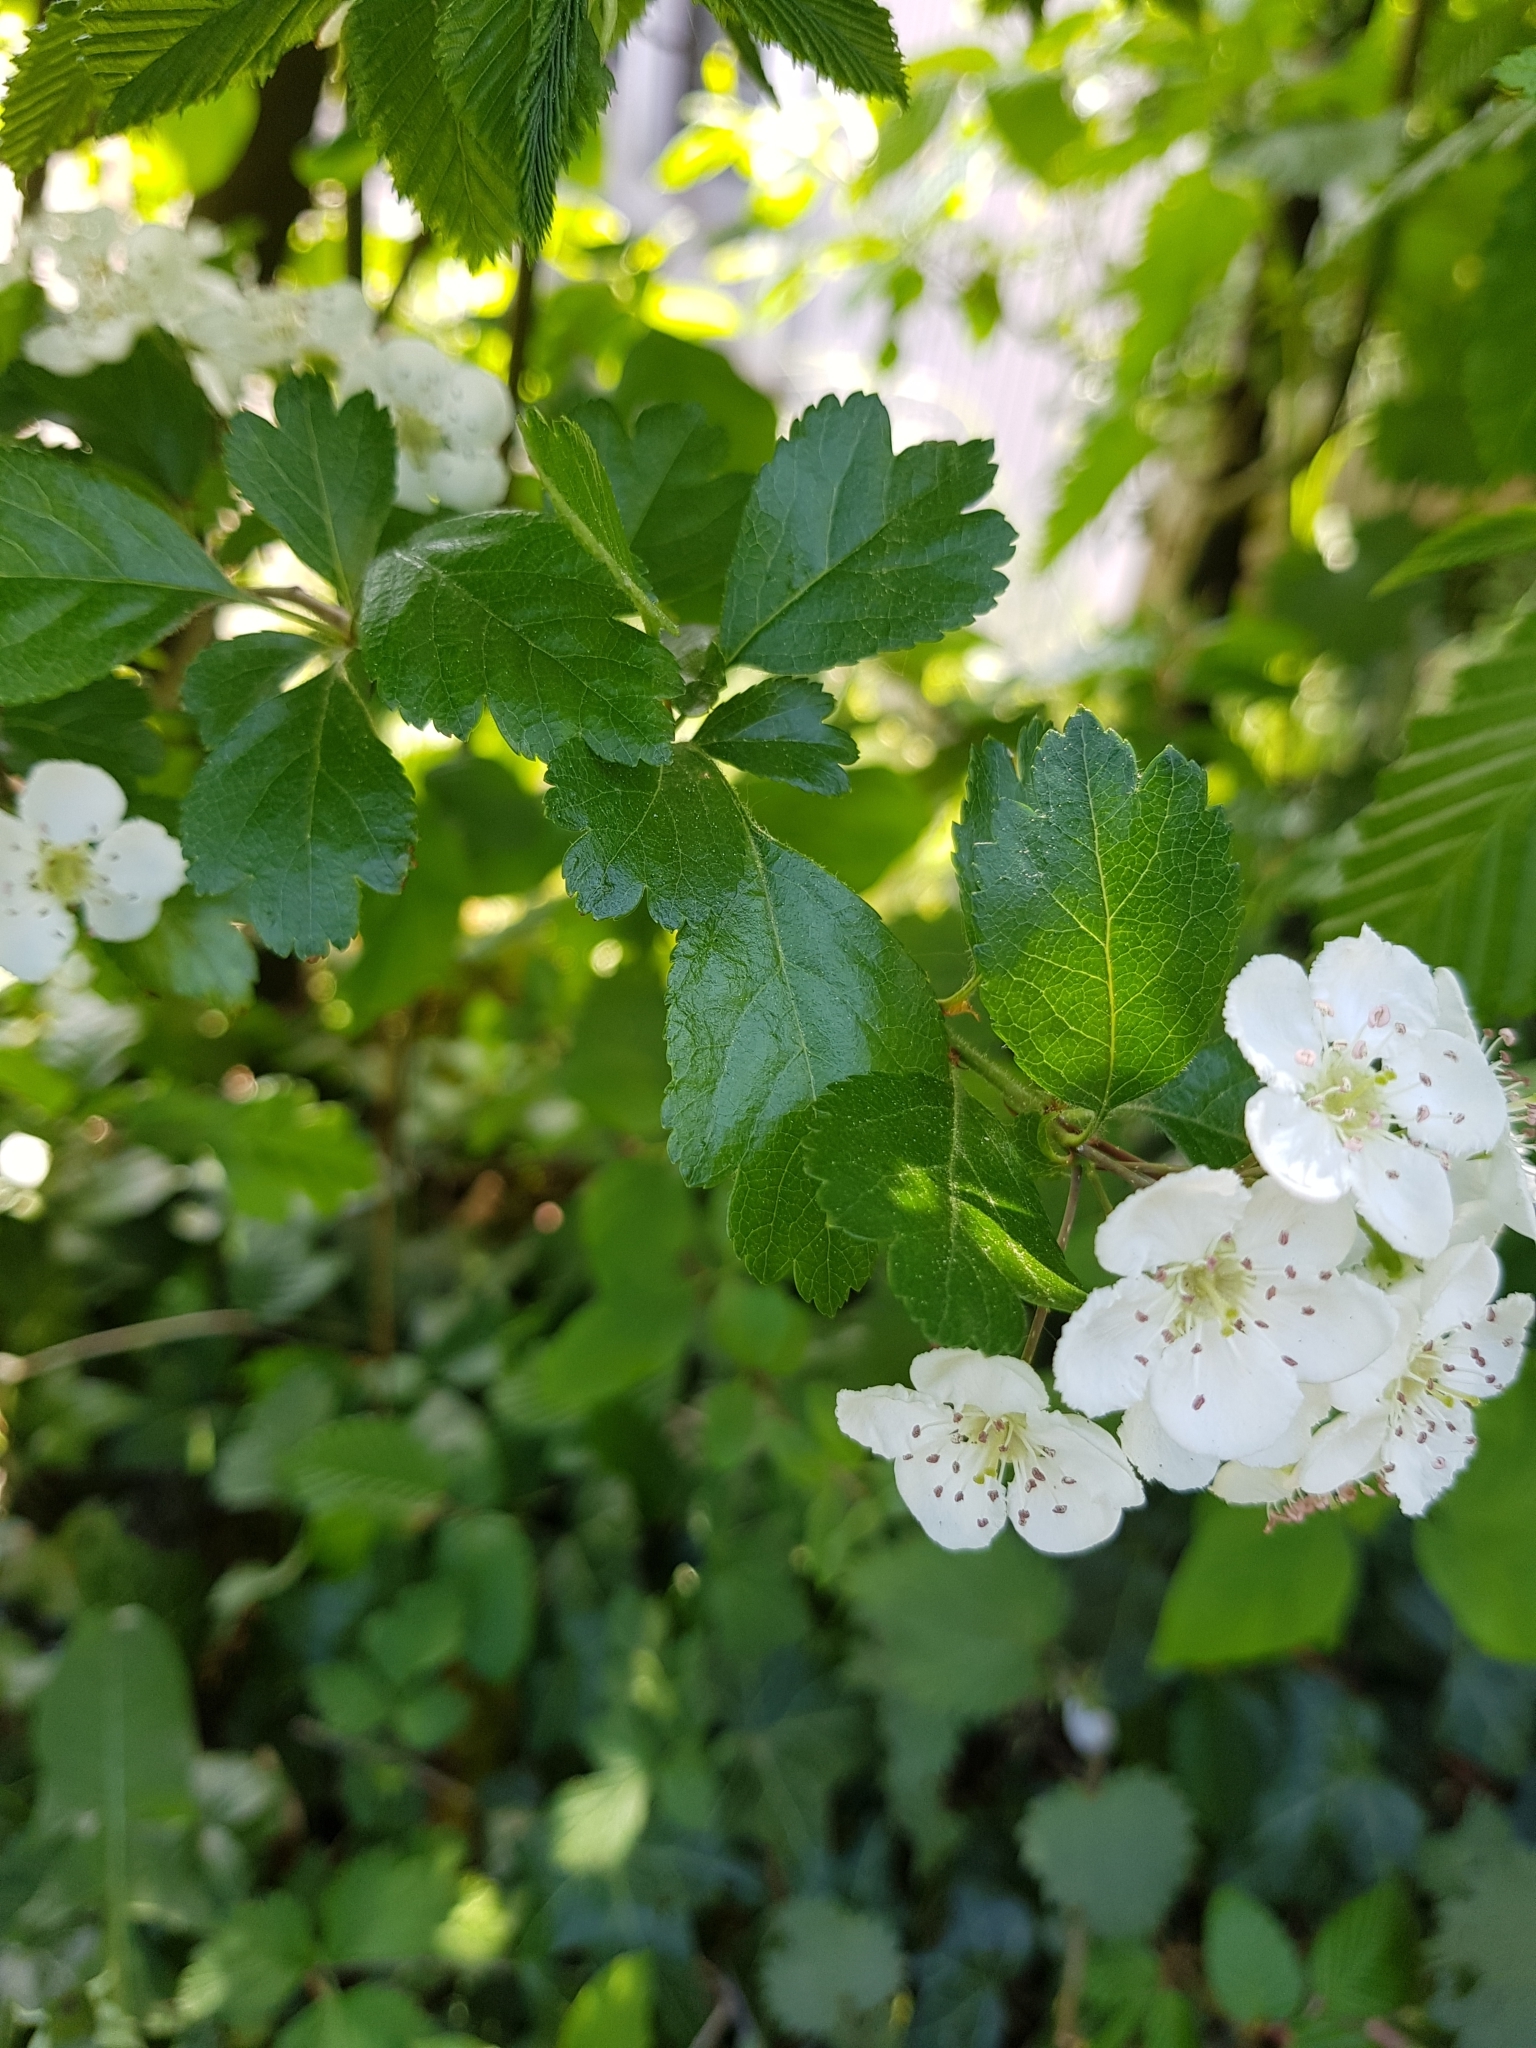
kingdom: Plantae
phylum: Tracheophyta
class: Magnoliopsida
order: Rosales
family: Rosaceae
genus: Crataegus
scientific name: Crataegus laevigata
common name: Midland hawthorn
